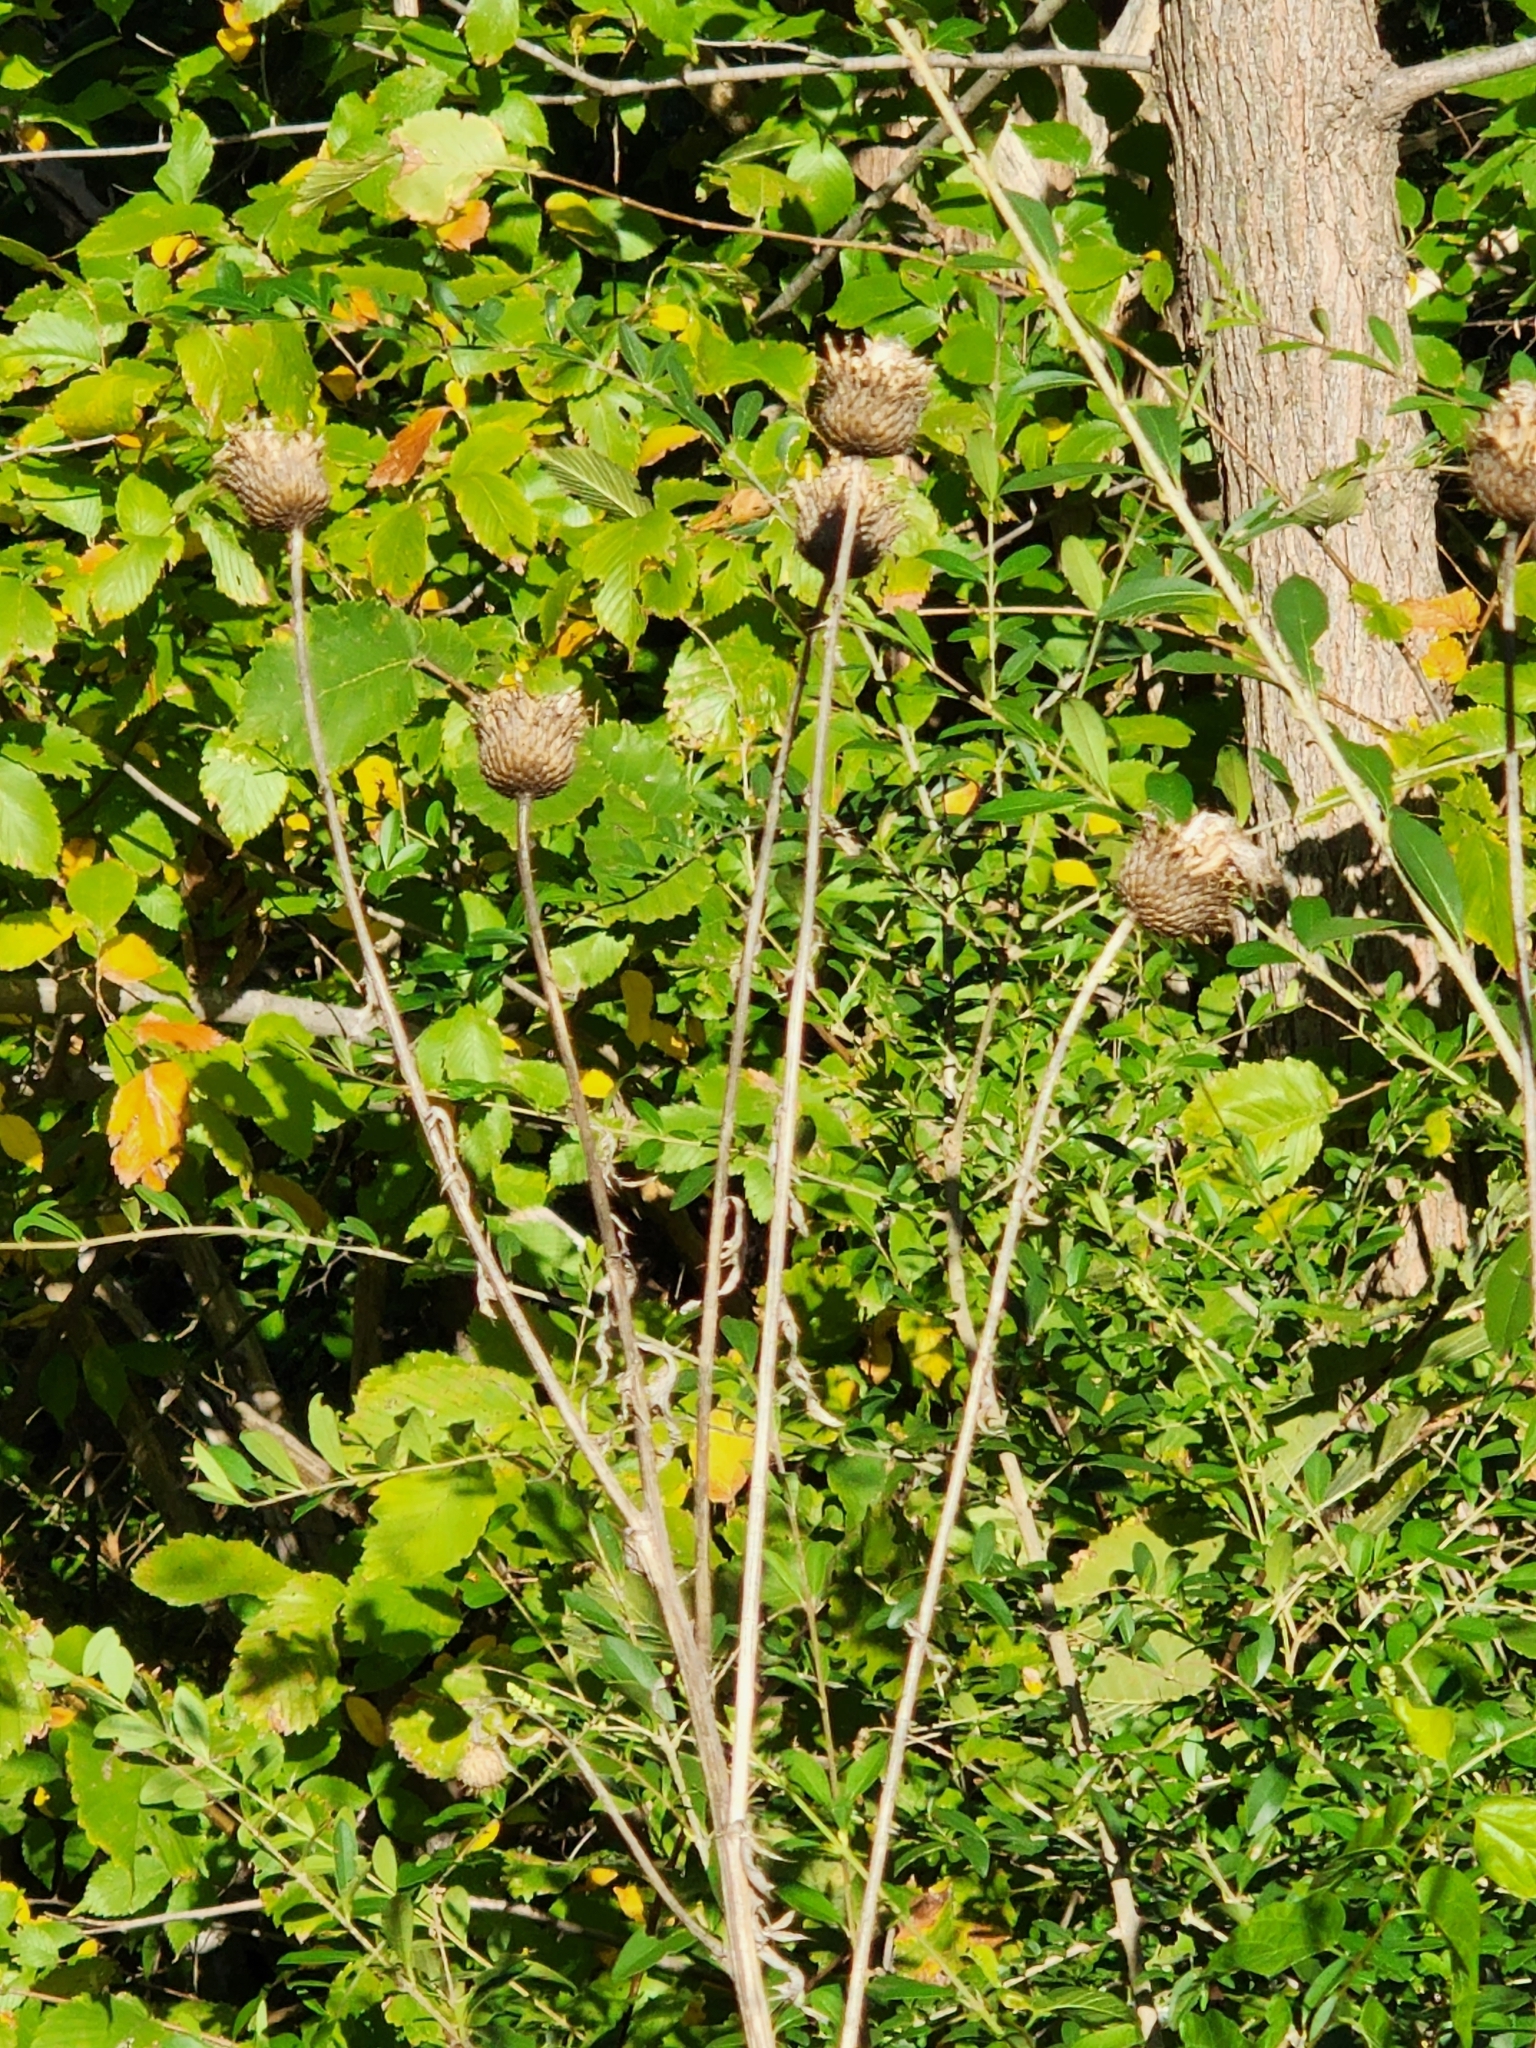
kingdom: Plantae
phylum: Tracheophyta
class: Magnoliopsida
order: Asterales
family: Asteraceae
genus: Plectocephalus
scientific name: Plectocephalus americanus
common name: American basket-flower
